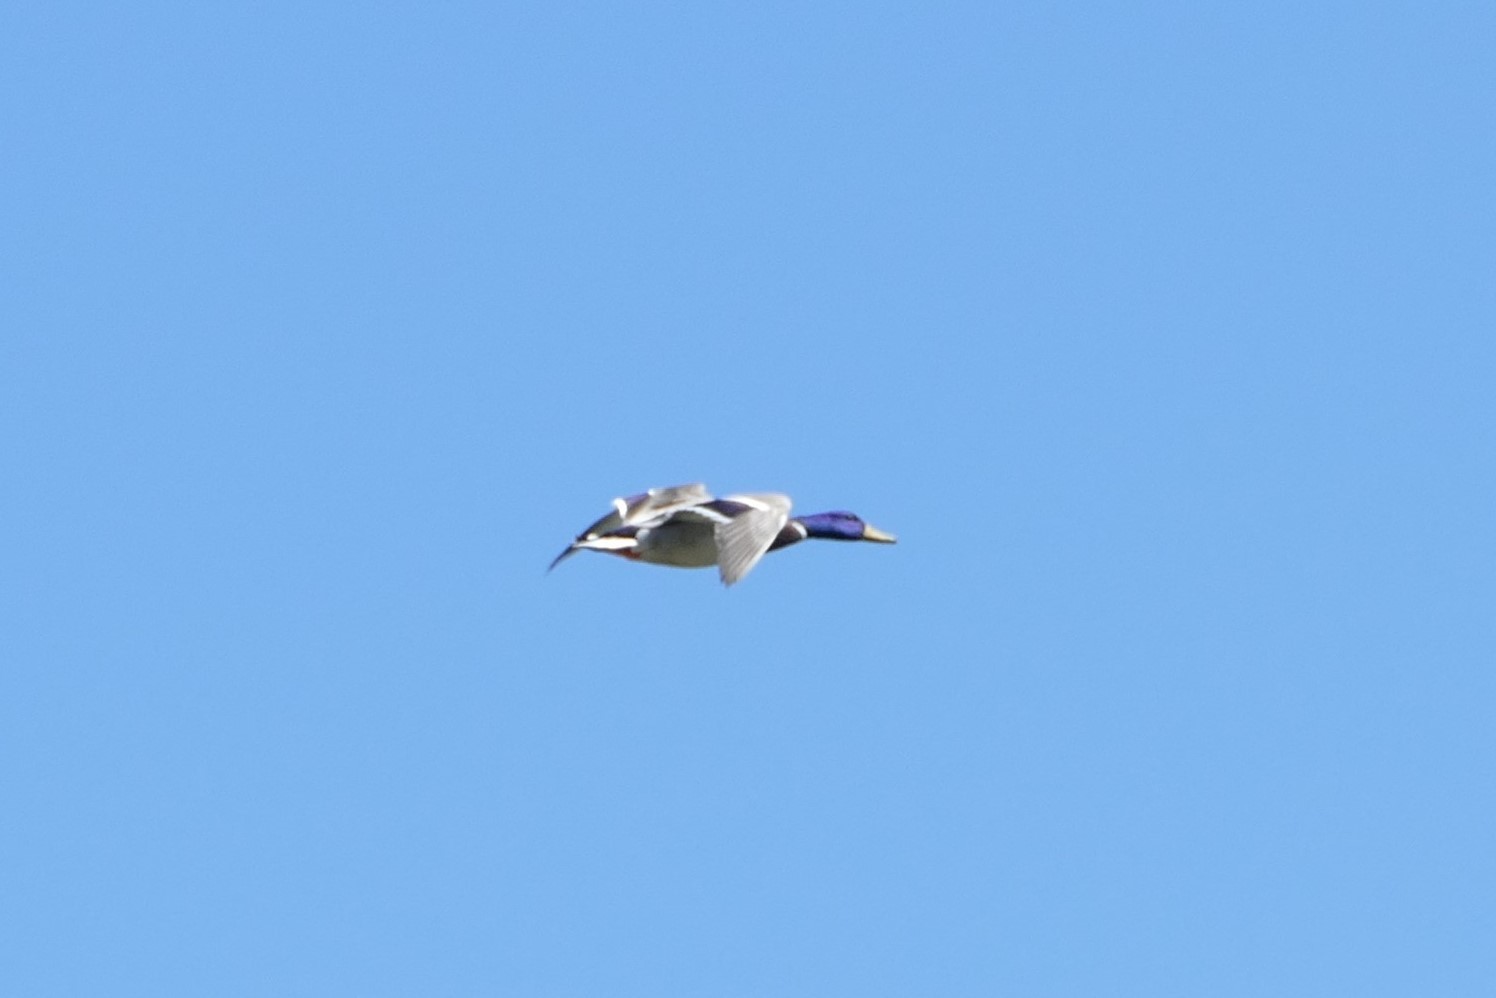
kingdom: Animalia
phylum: Chordata
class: Aves
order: Anseriformes
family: Anatidae
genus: Anas
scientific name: Anas platyrhynchos
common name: Mallard
